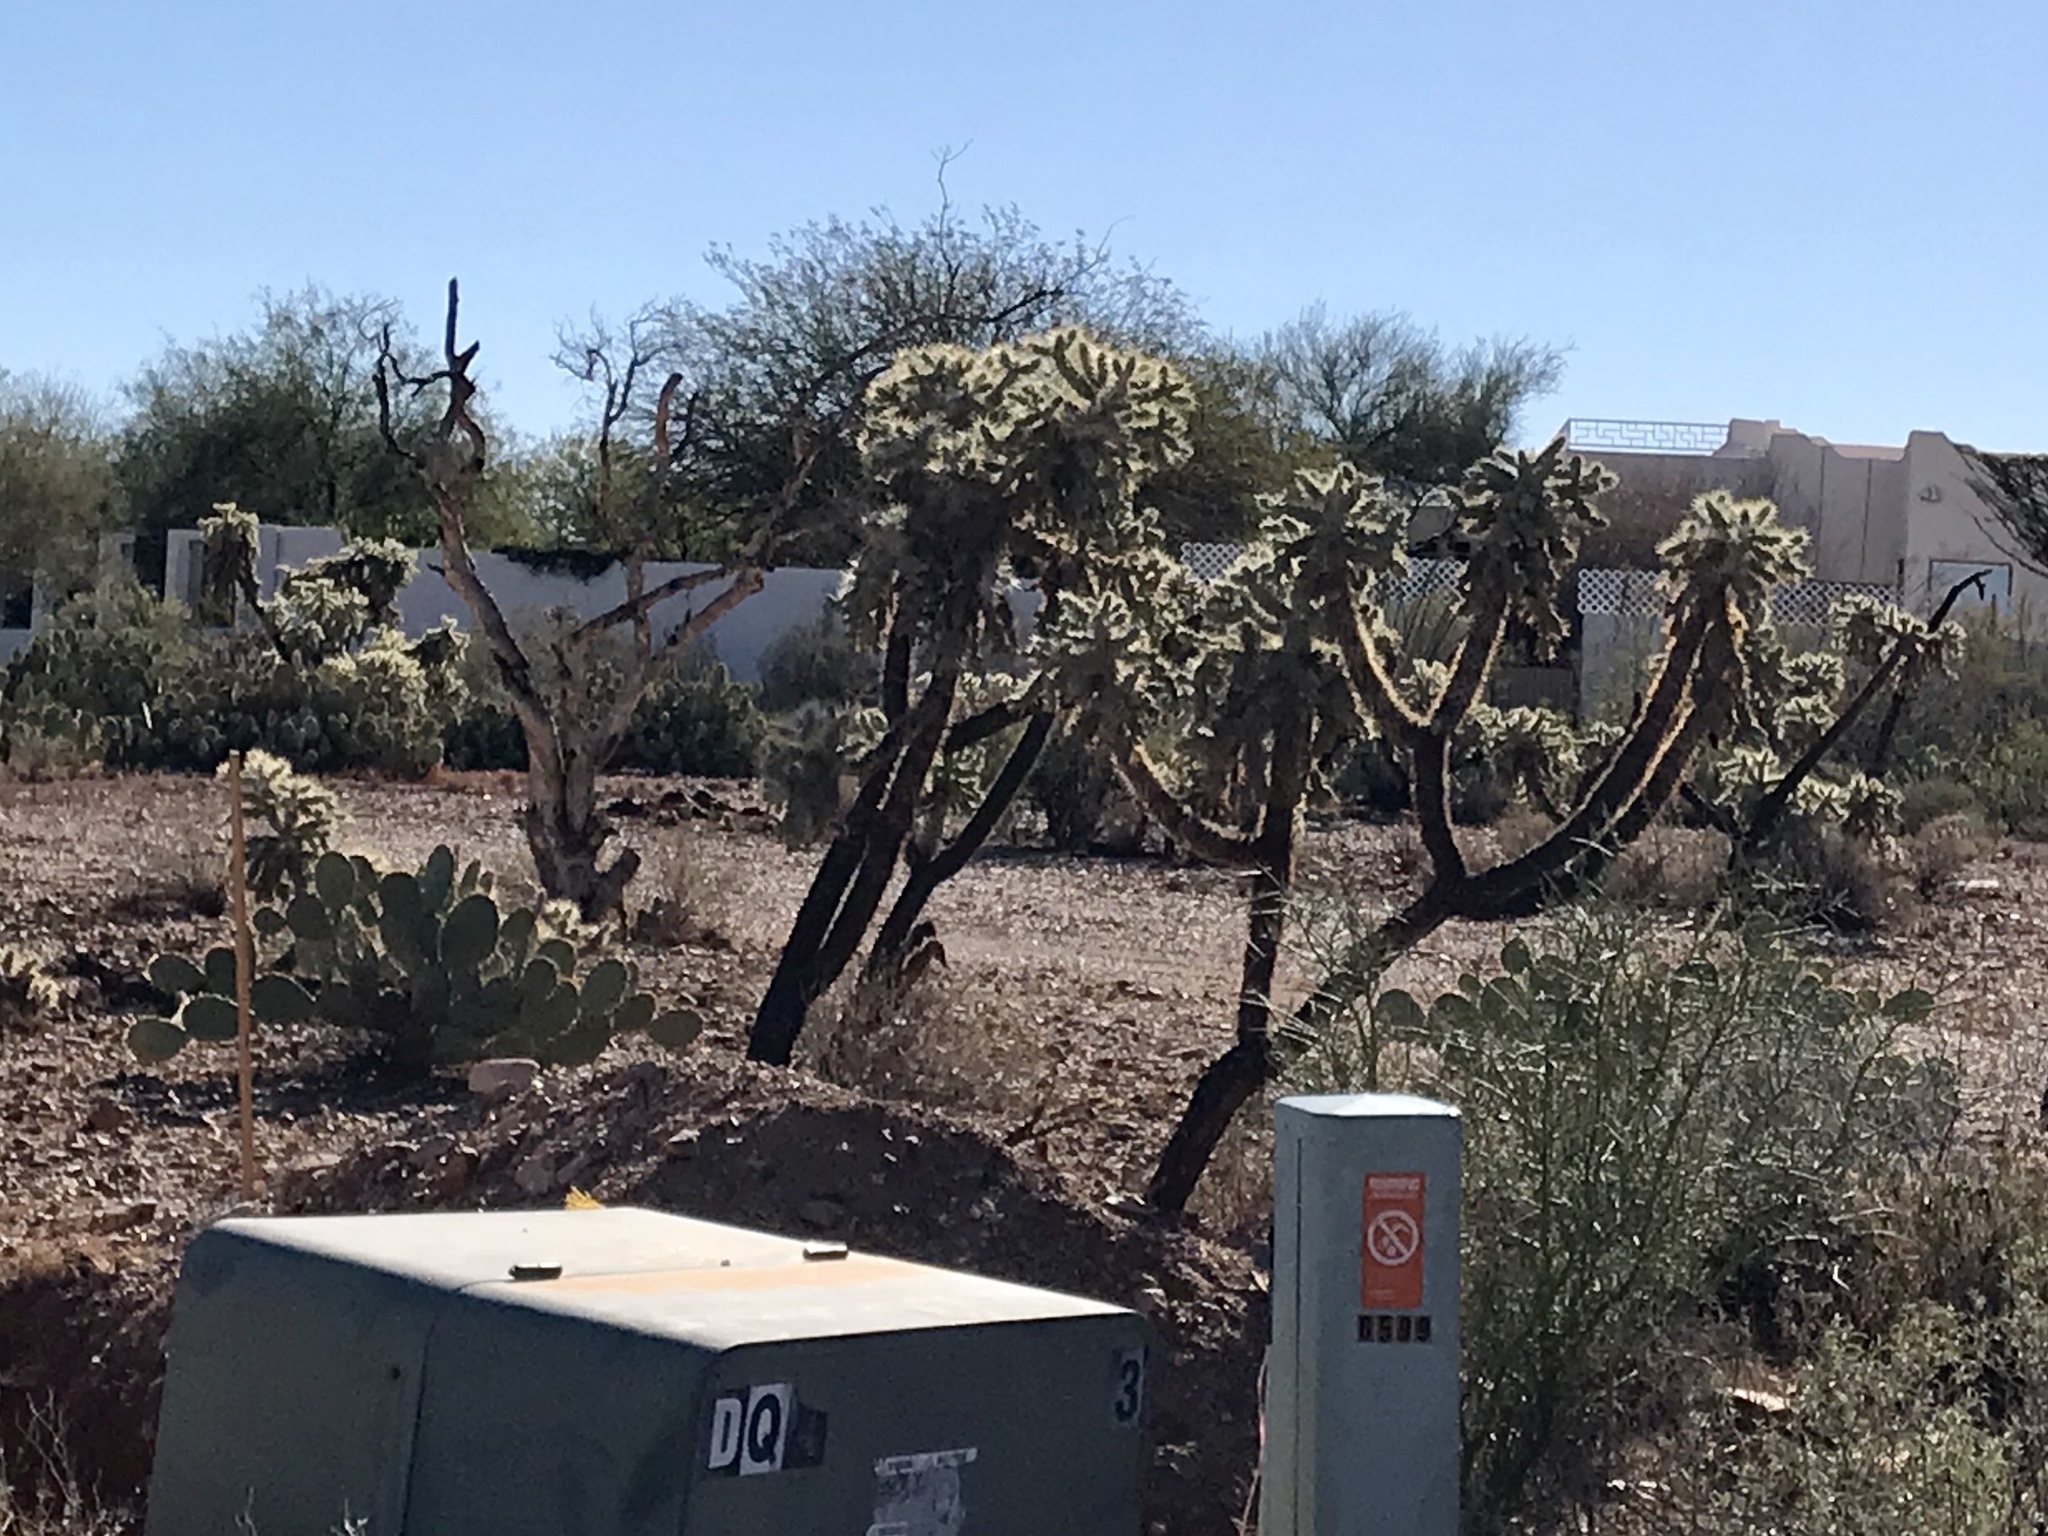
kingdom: Plantae
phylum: Tracheophyta
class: Magnoliopsida
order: Caryophyllales
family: Cactaceae
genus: Cylindropuntia
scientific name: Cylindropuntia fulgida
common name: Jumping cholla
